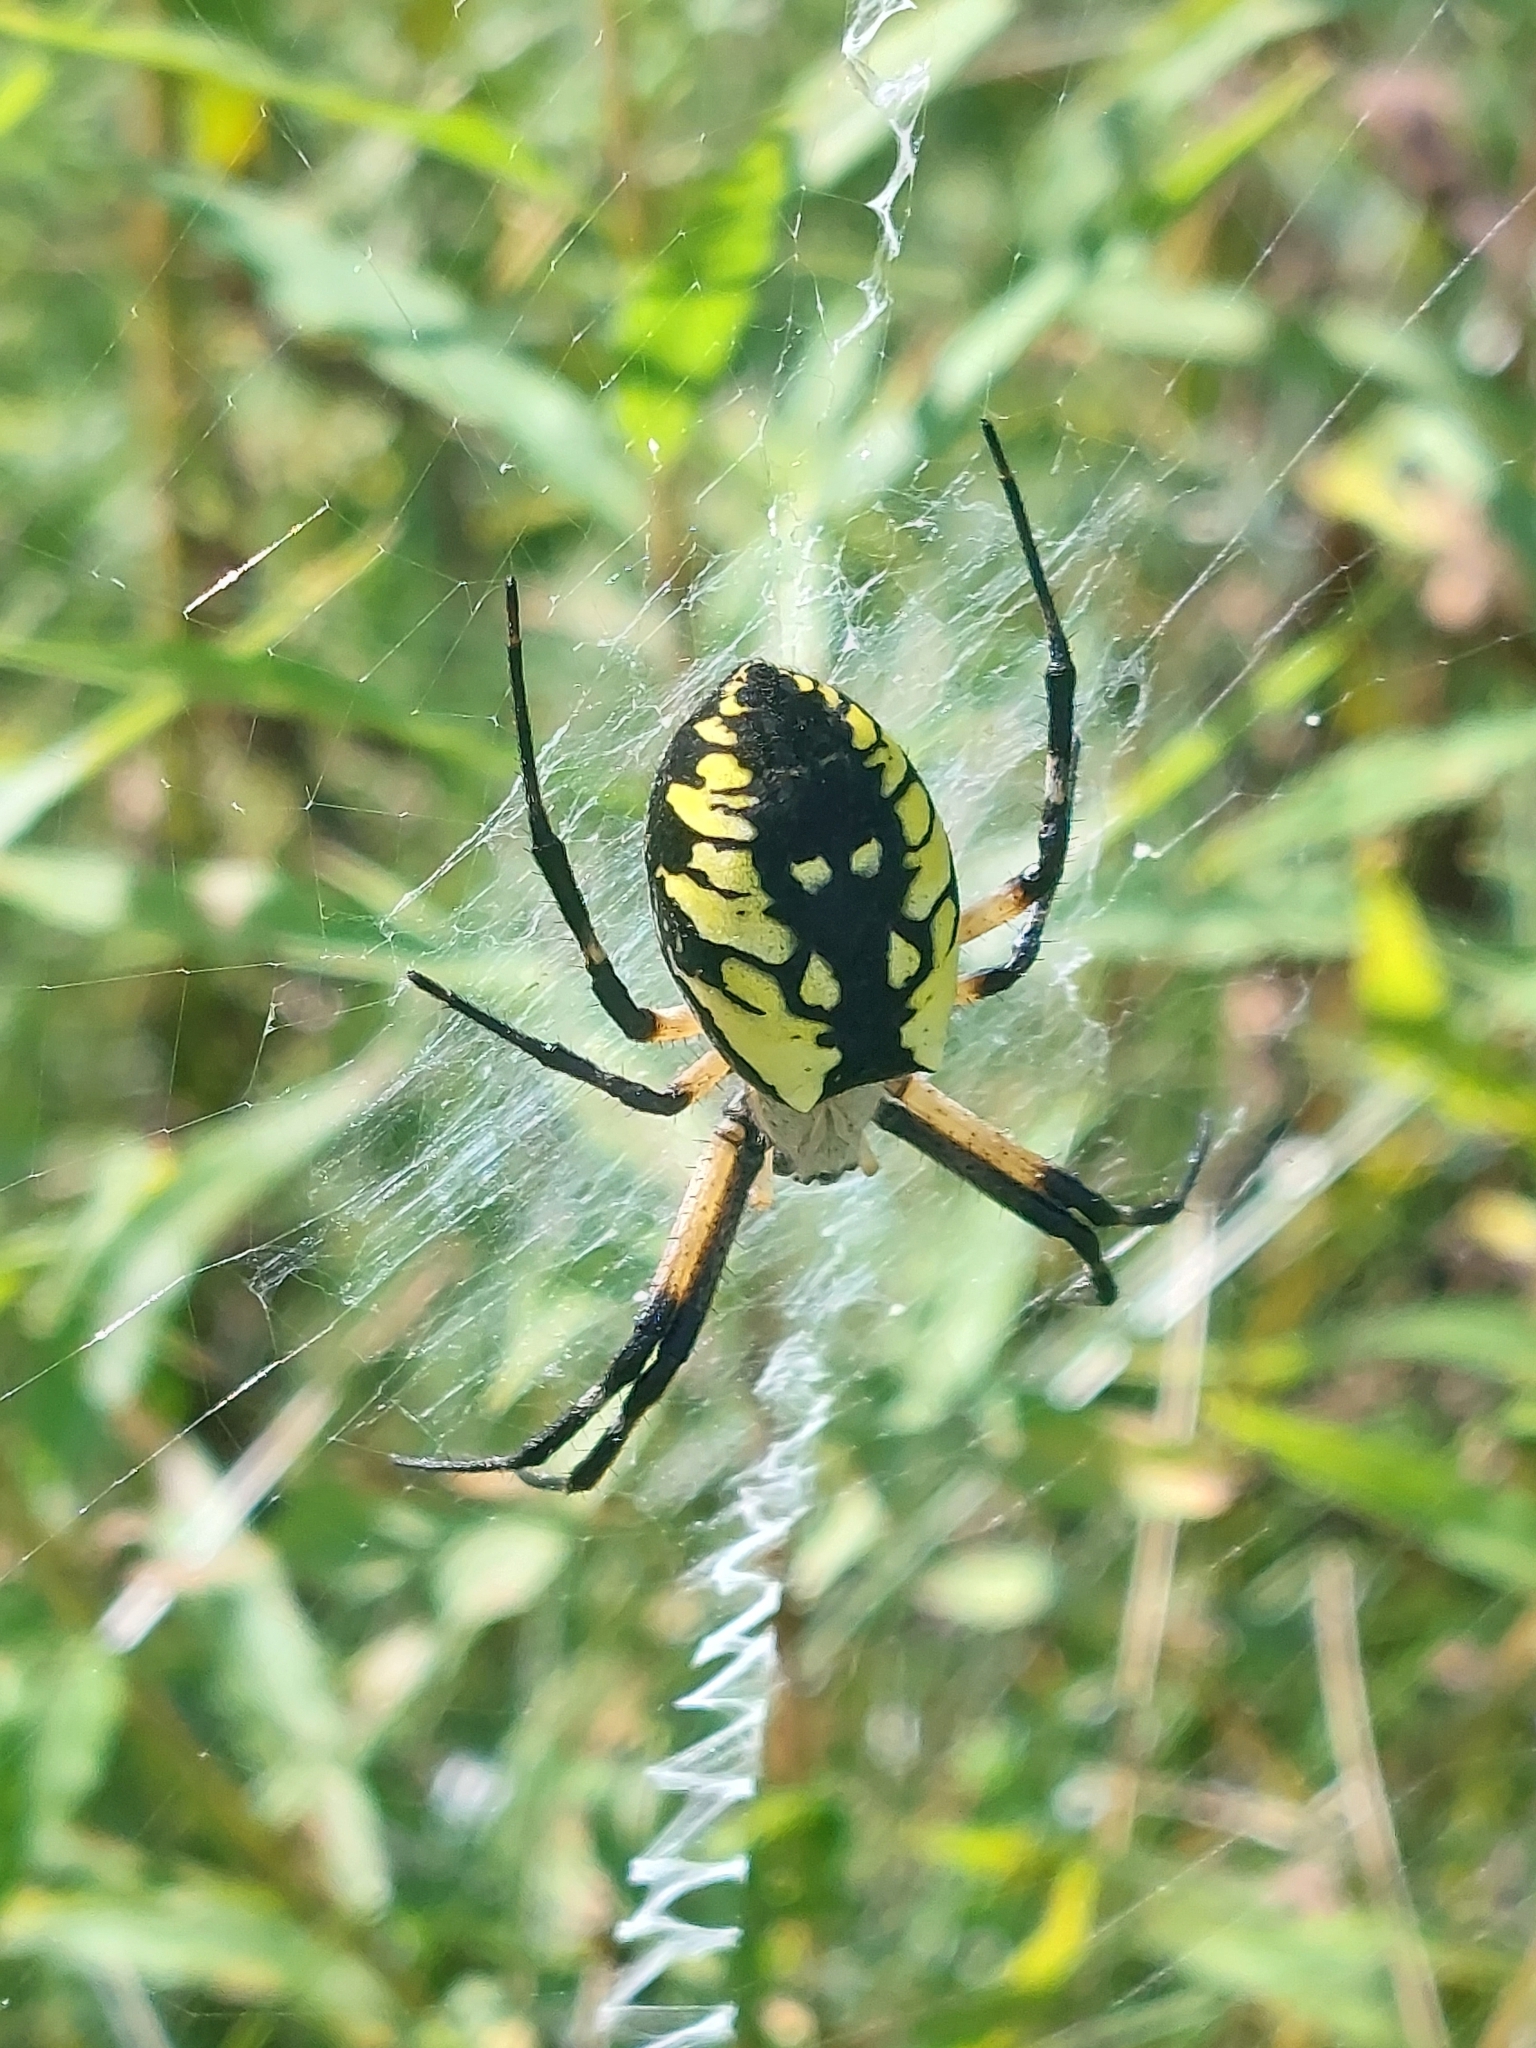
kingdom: Animalia
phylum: Arthropoda
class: Arachnida
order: Araneae
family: Araneidae
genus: Argiope
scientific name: Argiope aurantia
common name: Orb weavers
